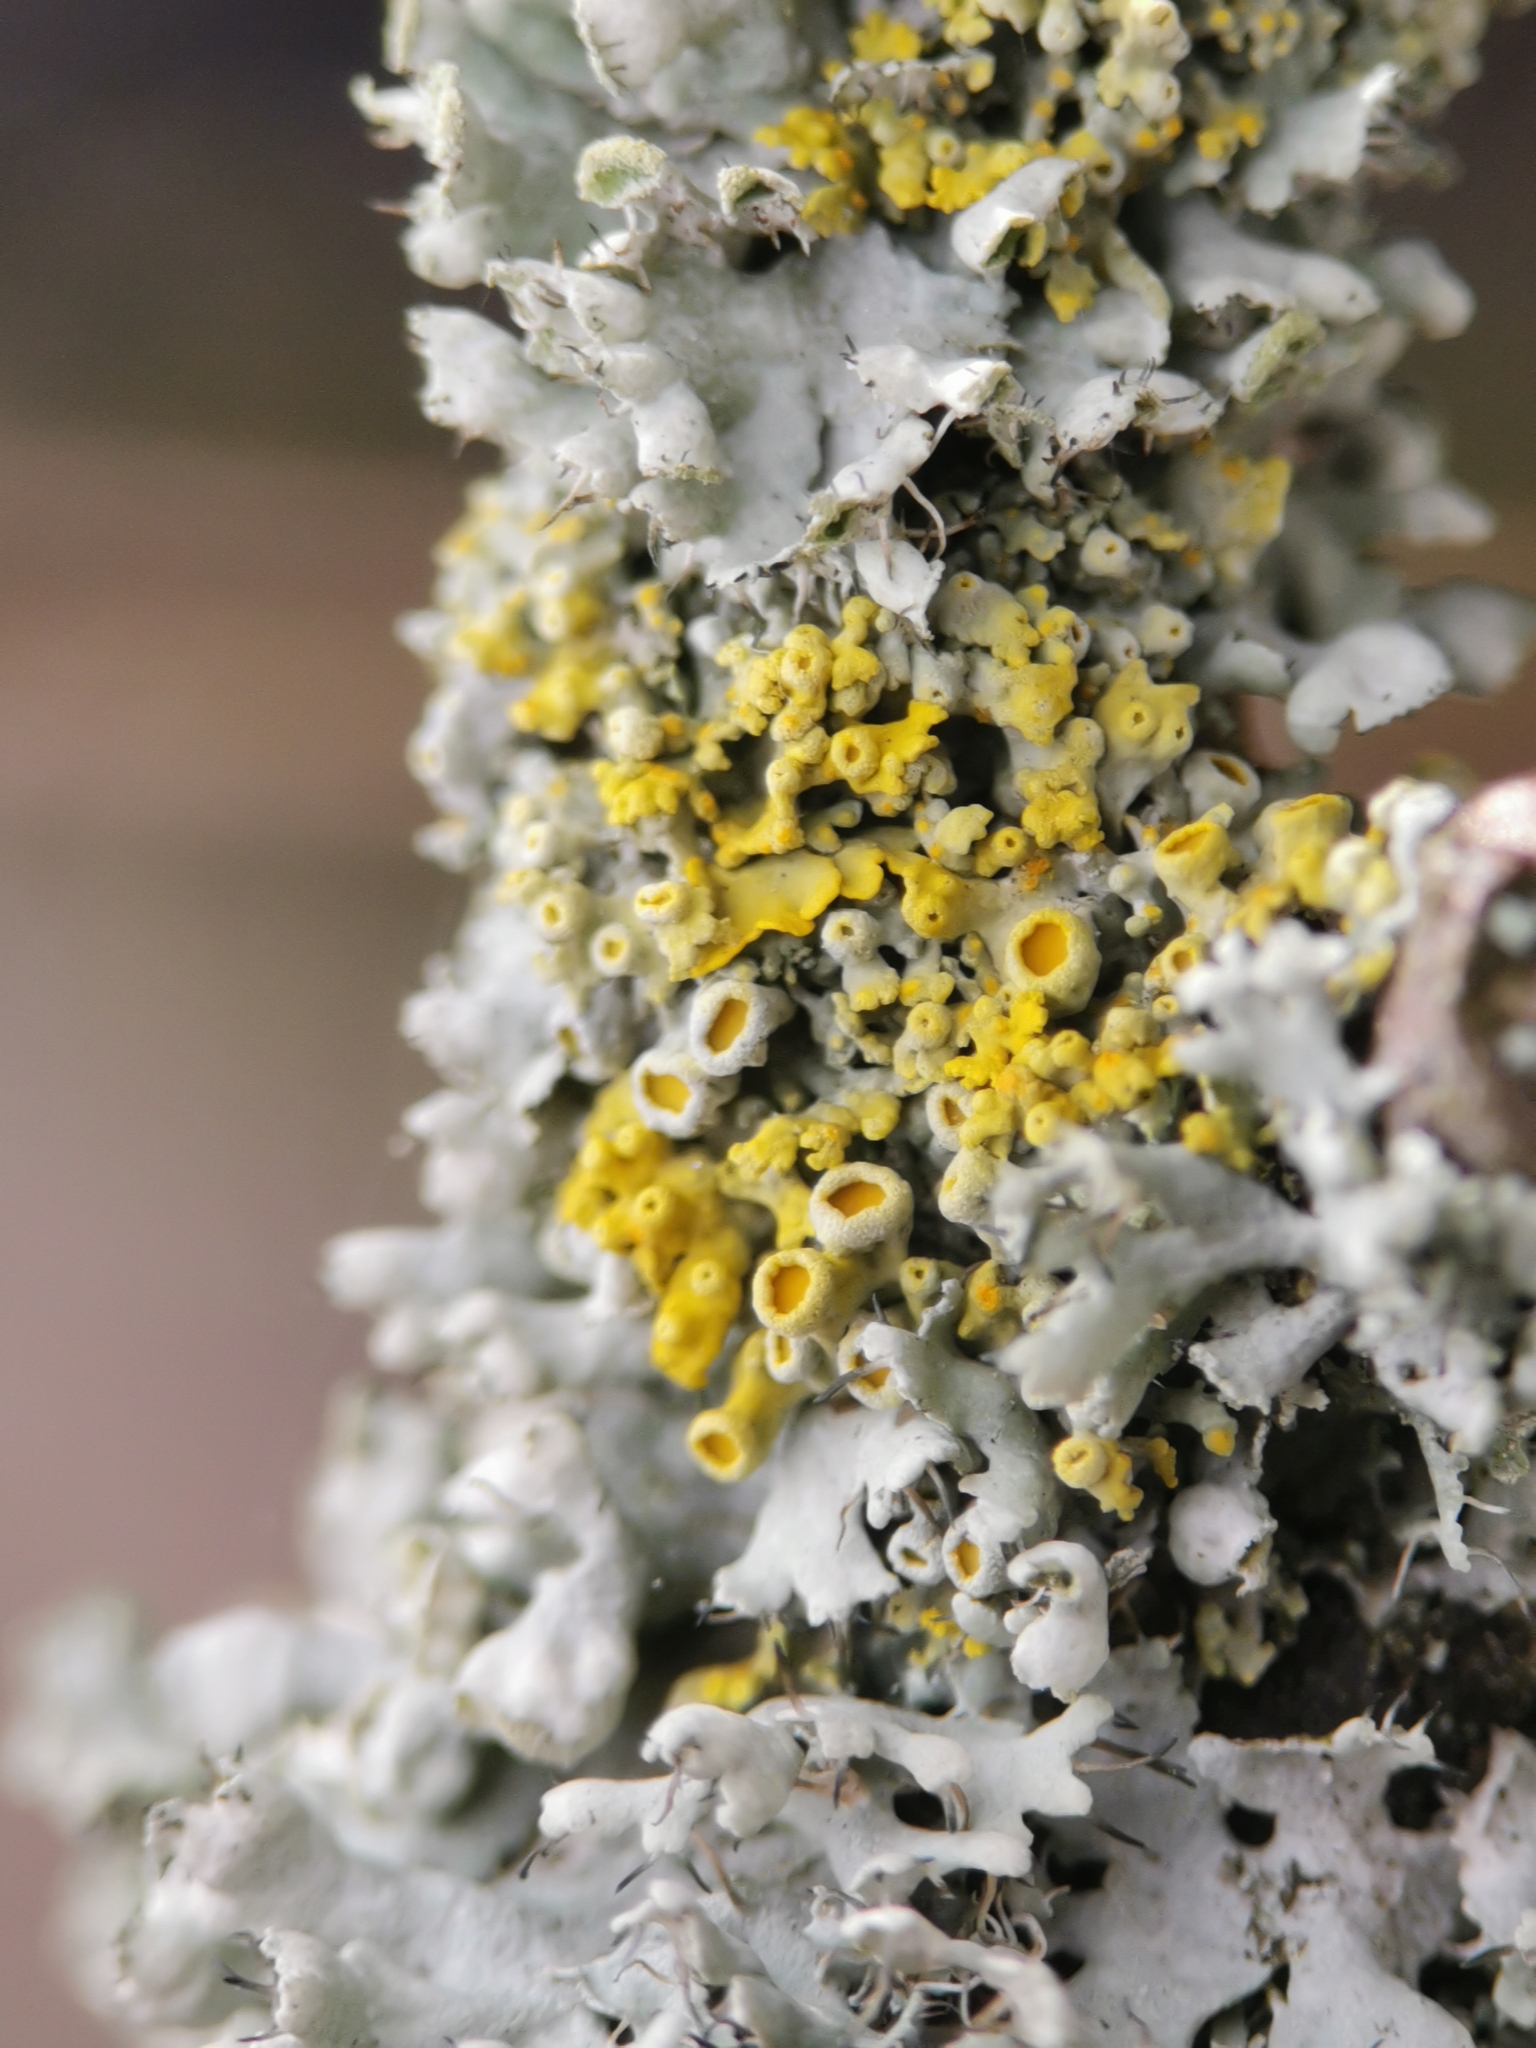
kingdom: Fungi
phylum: Ascomycota
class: Lecanoromycetes
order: Teloschistales
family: Teloschistaceae
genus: Polycauliona
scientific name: Polycauliona polycarpa
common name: Pin-cushion sunburst lichen
